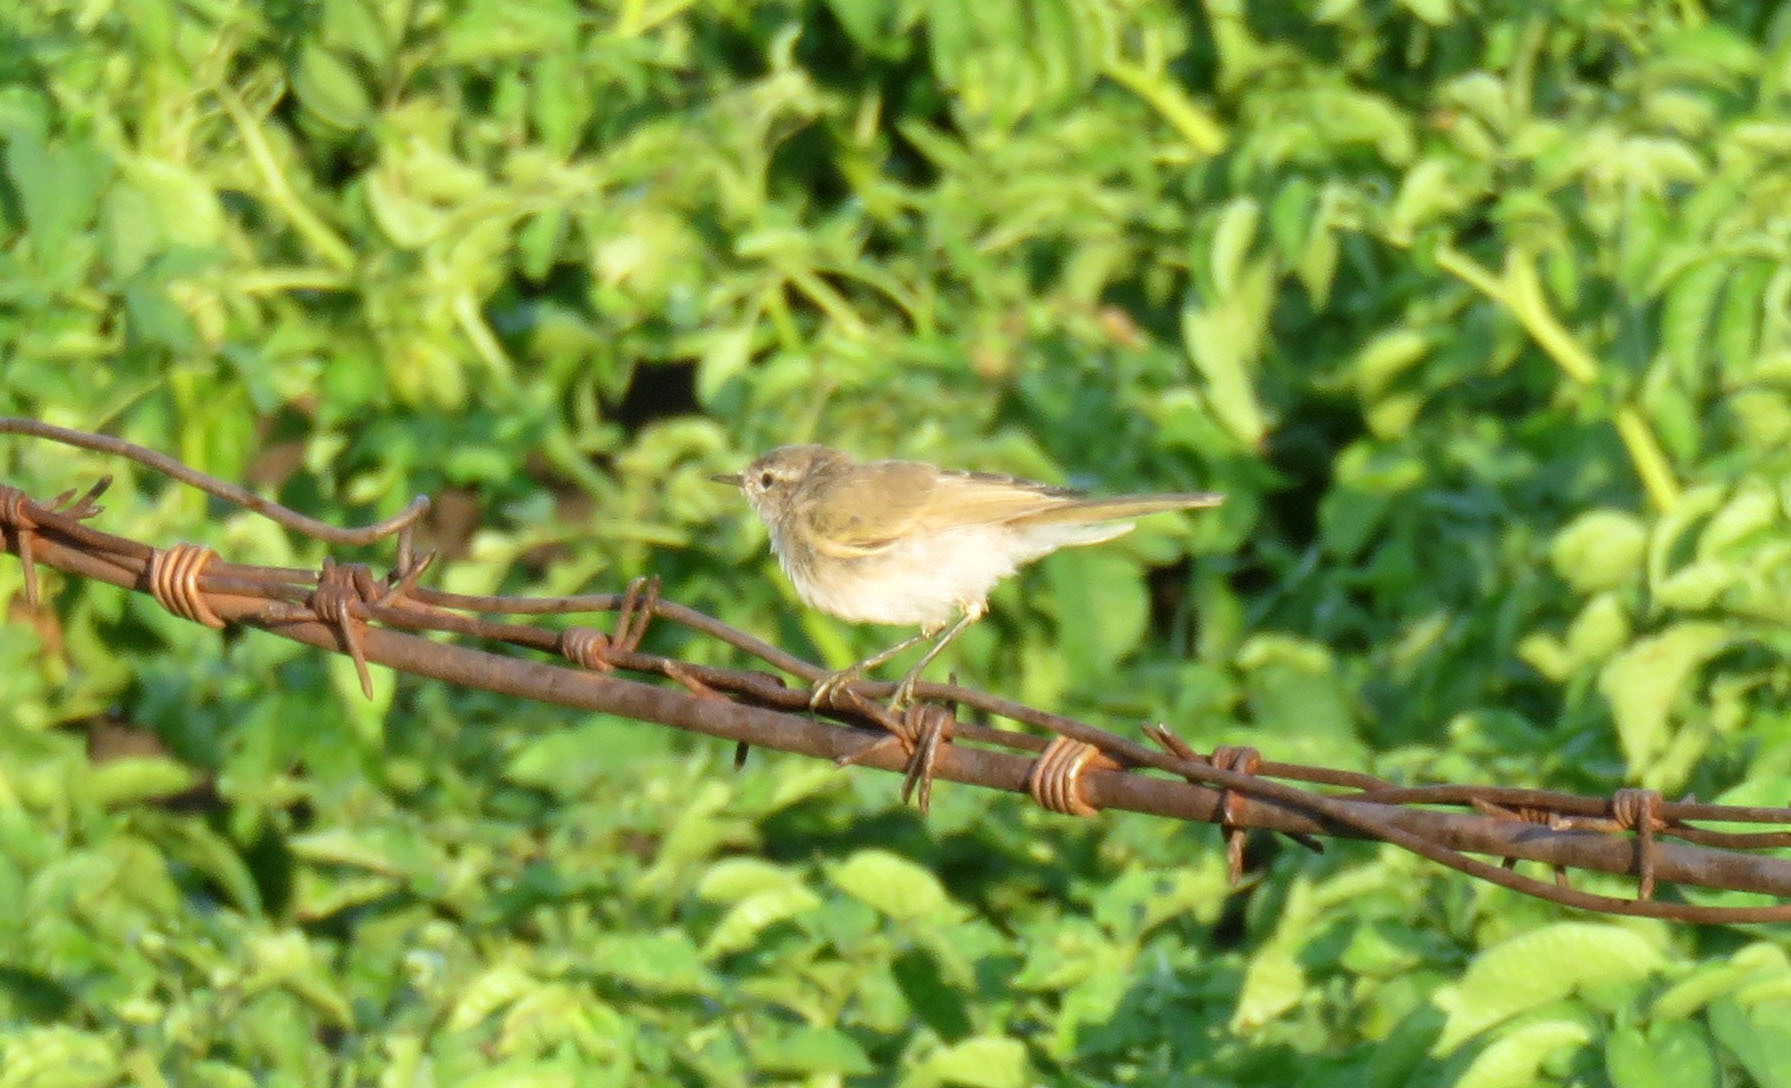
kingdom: Animalia
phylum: Chordata
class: Aves
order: Passeriformes
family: Phylloscopidae
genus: Phylloscopus
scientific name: Phylloscopus collybita
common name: Common chiffchaff
